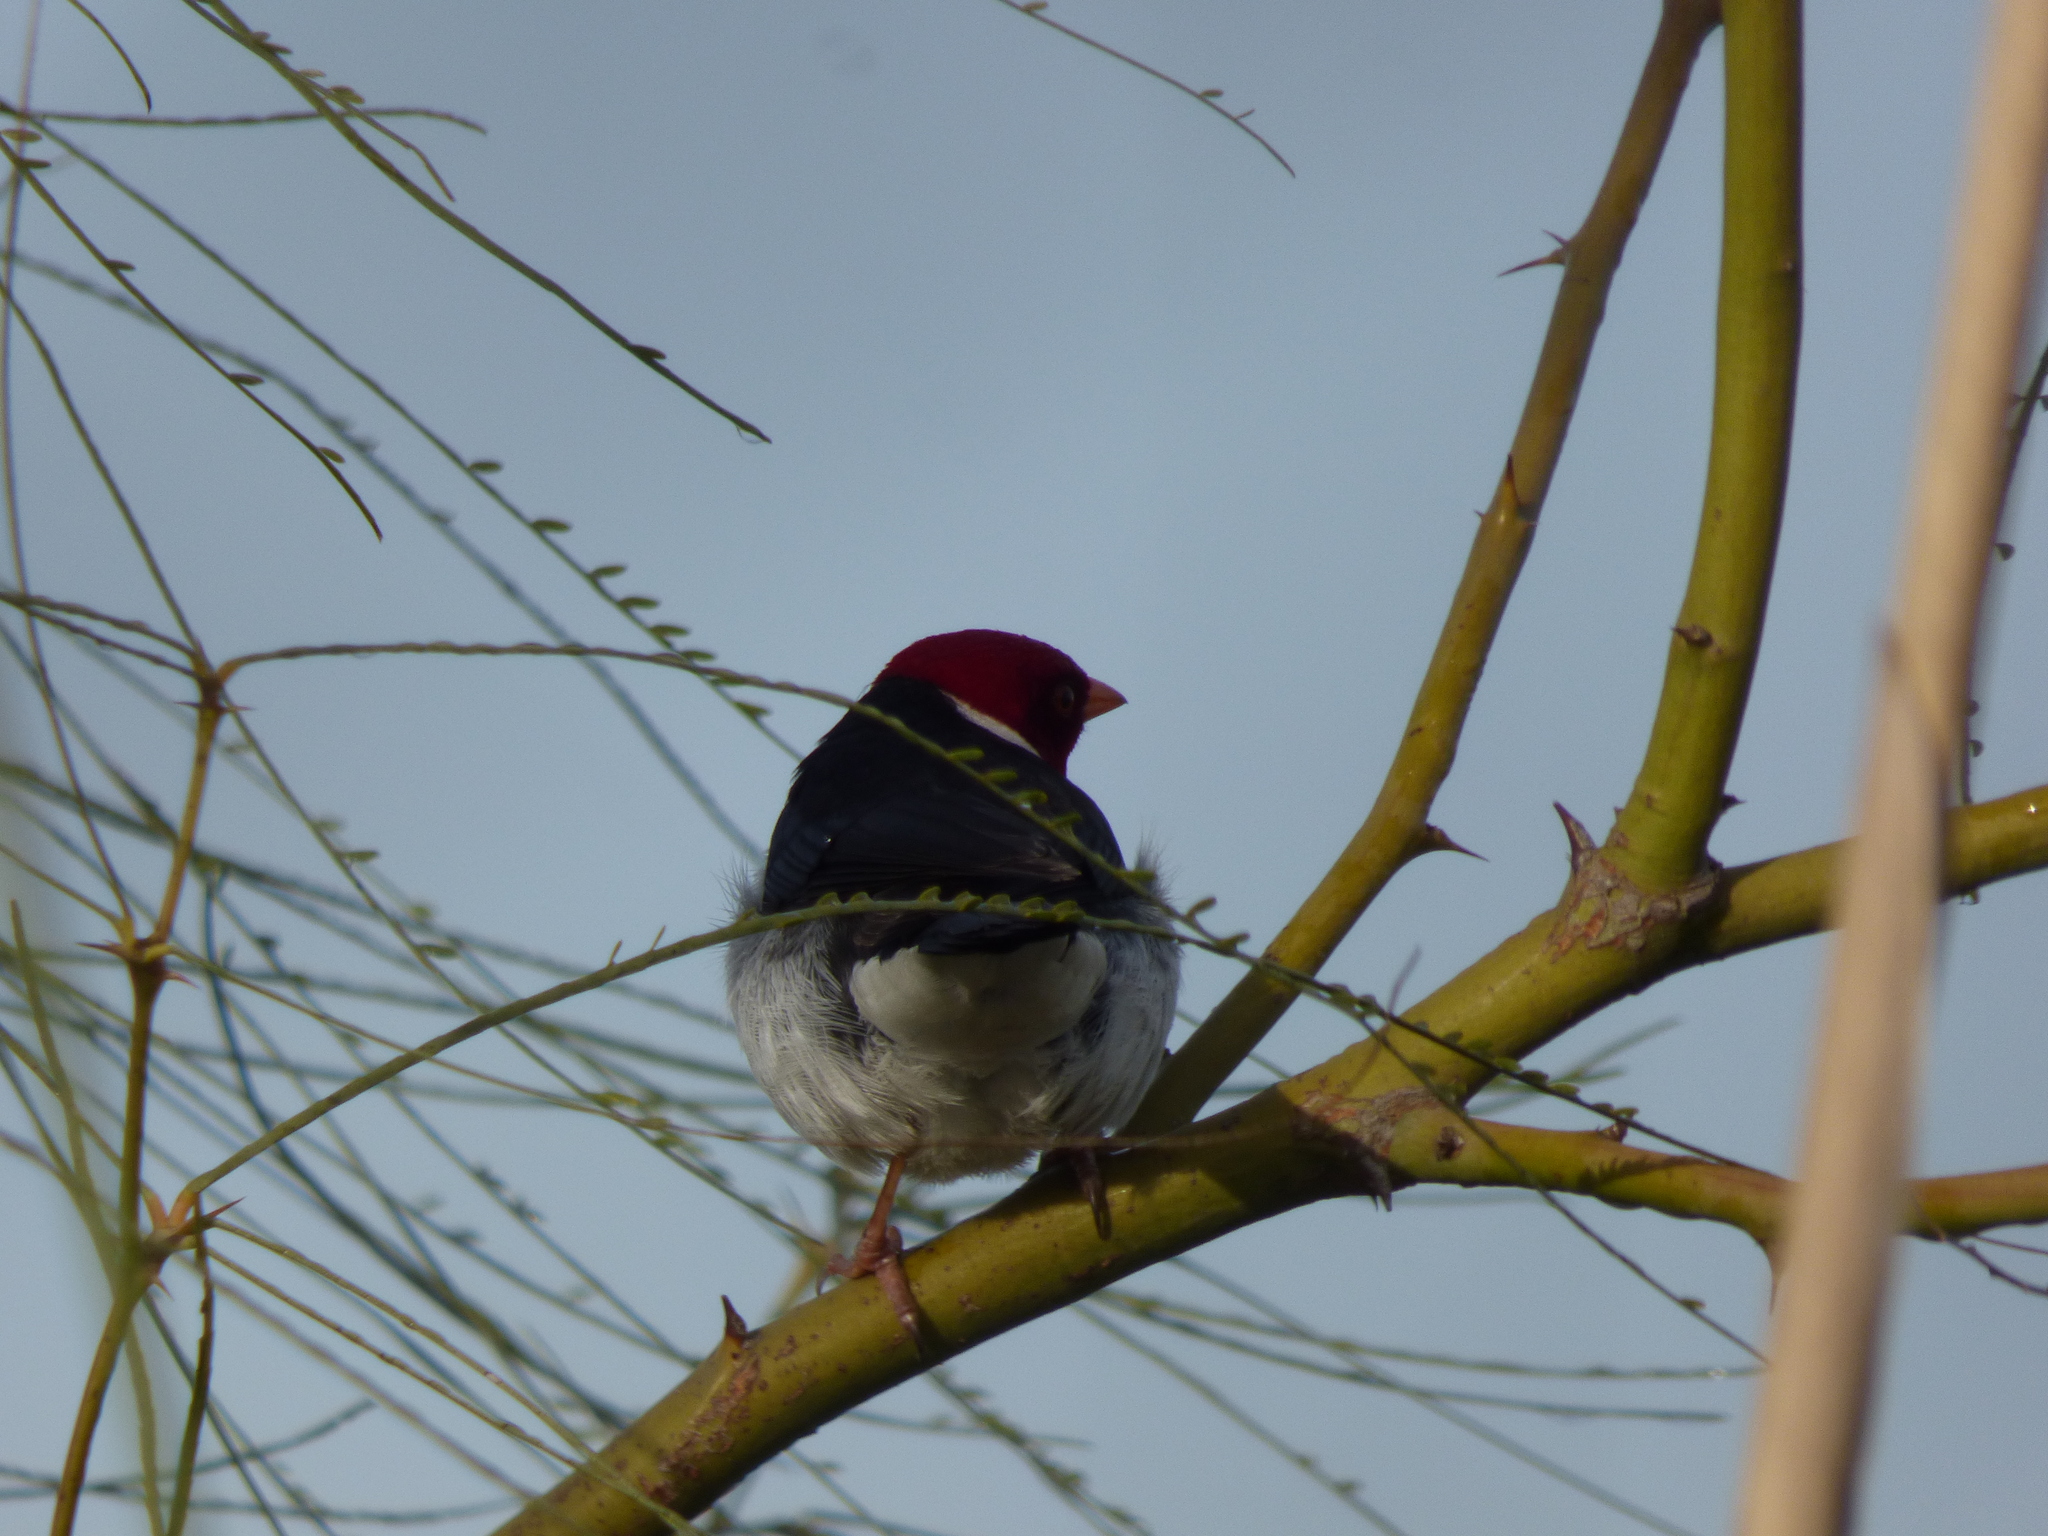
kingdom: Animalia
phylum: Chordata
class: Aves
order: Passeriformes
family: Thraupidae
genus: Paroaria
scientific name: Paroaria capitata
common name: Yellow-billed cardinal
